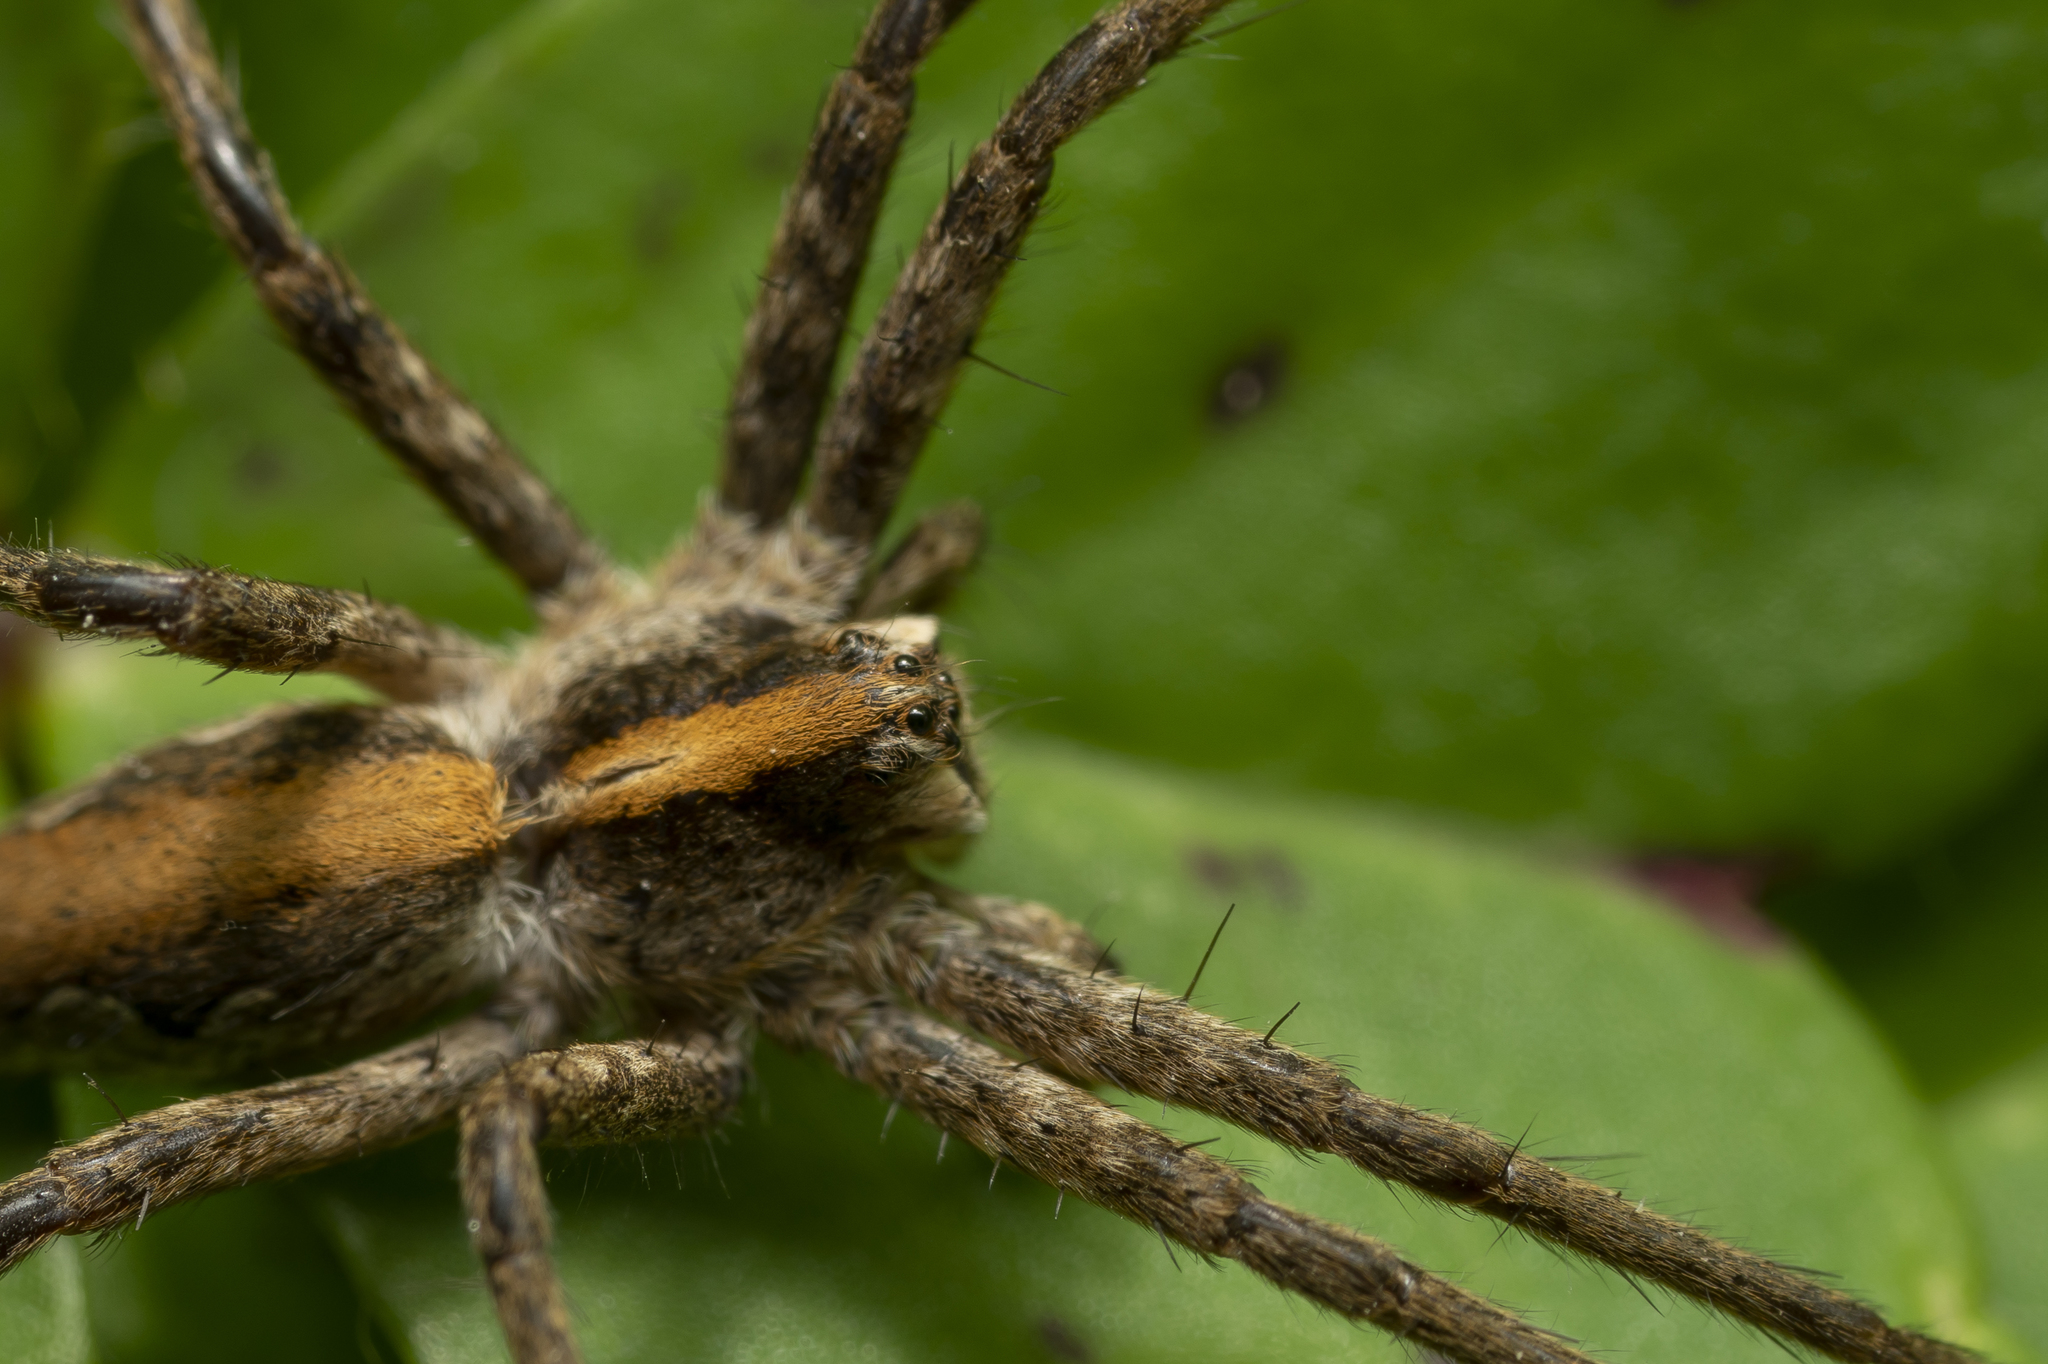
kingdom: Animalia
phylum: Arthropoda
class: Arachnida
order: Araneae
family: Pisauridae
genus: Pisaura
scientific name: Pisaura mirabilis
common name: Tent spider
